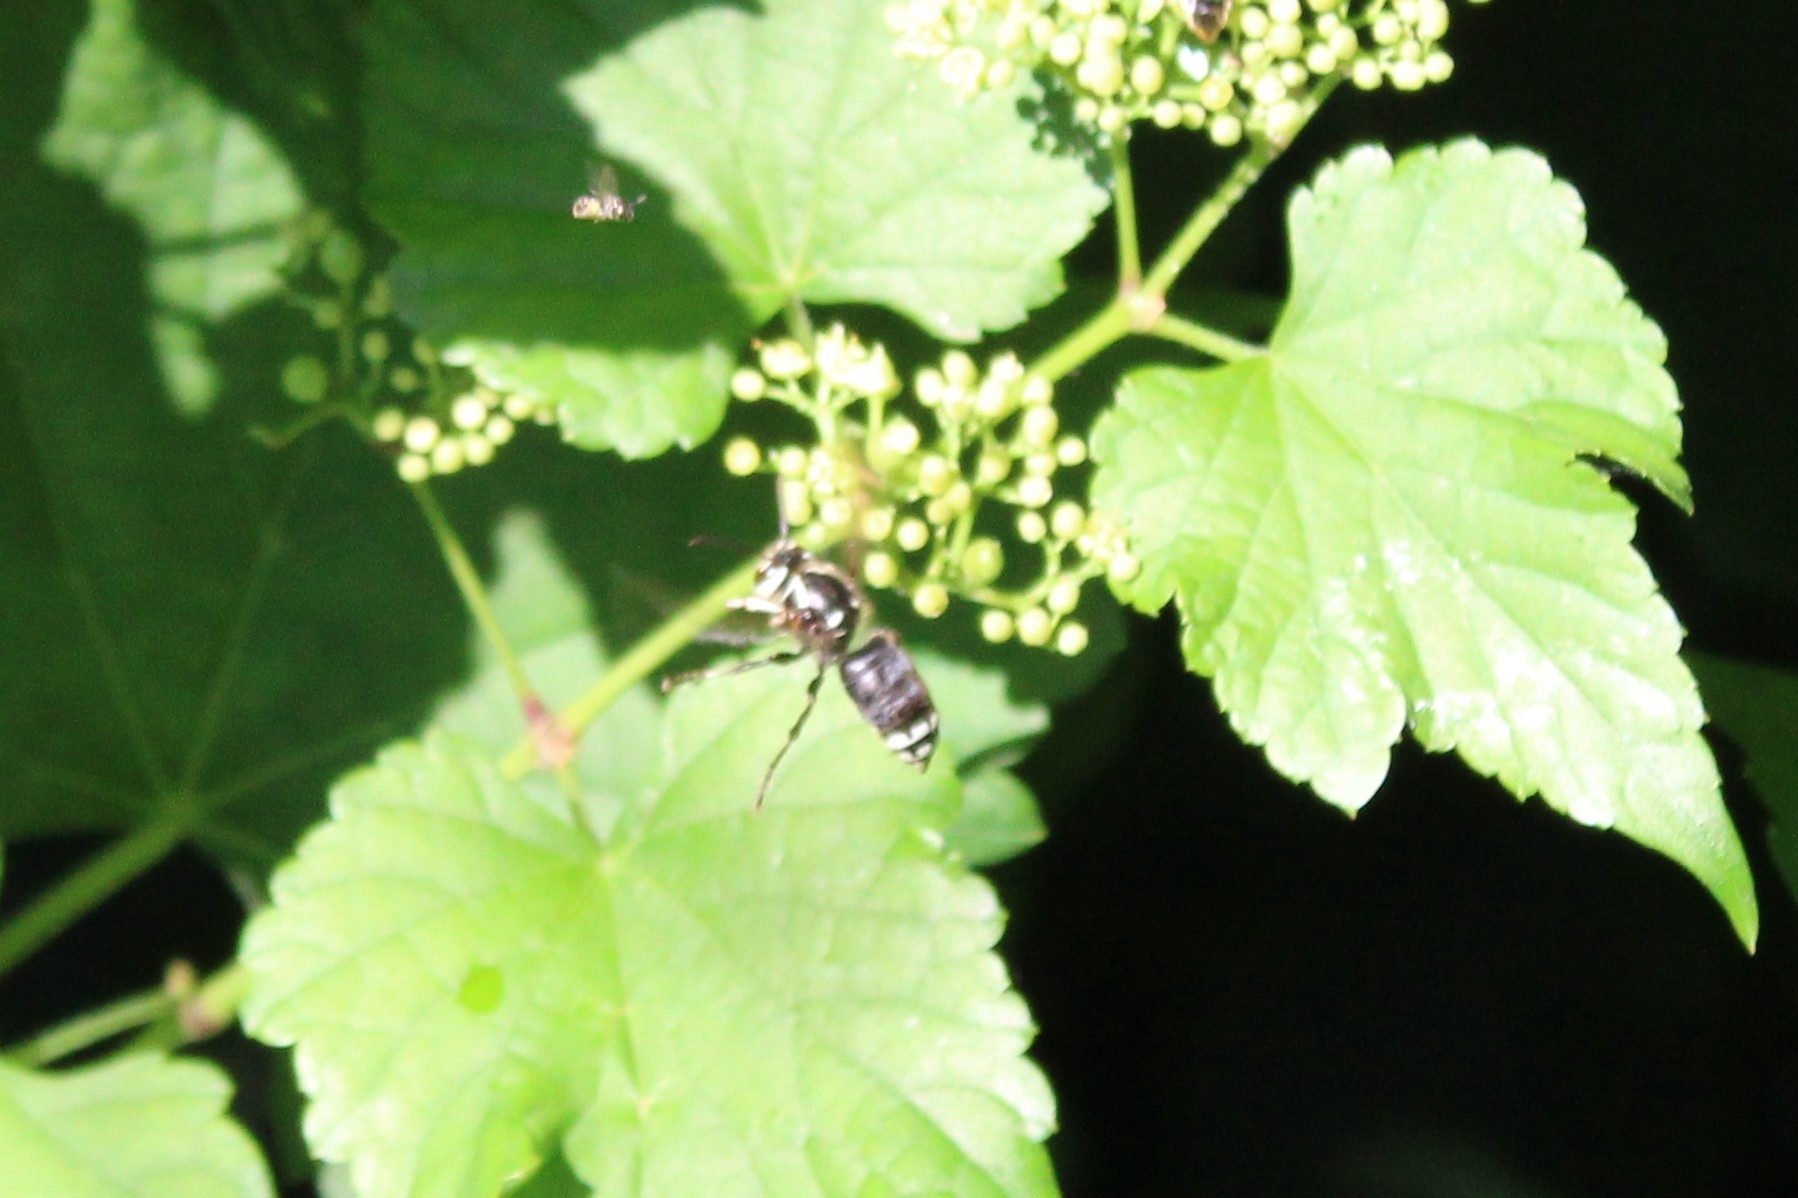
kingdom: Animalia
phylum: Arthropoda
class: Insecta
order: Hymenoptera
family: Vespidae
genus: Dolichovespula
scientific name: Dolichovespula maculata
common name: Bald-faced hornet
